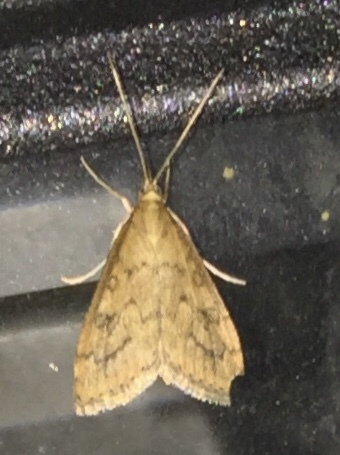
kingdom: Animalia
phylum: Arthropoda
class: Insecta
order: Lepidoptera
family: Crambidae
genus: Udea
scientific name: Udea rubigalis
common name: Celery leaftier moth
